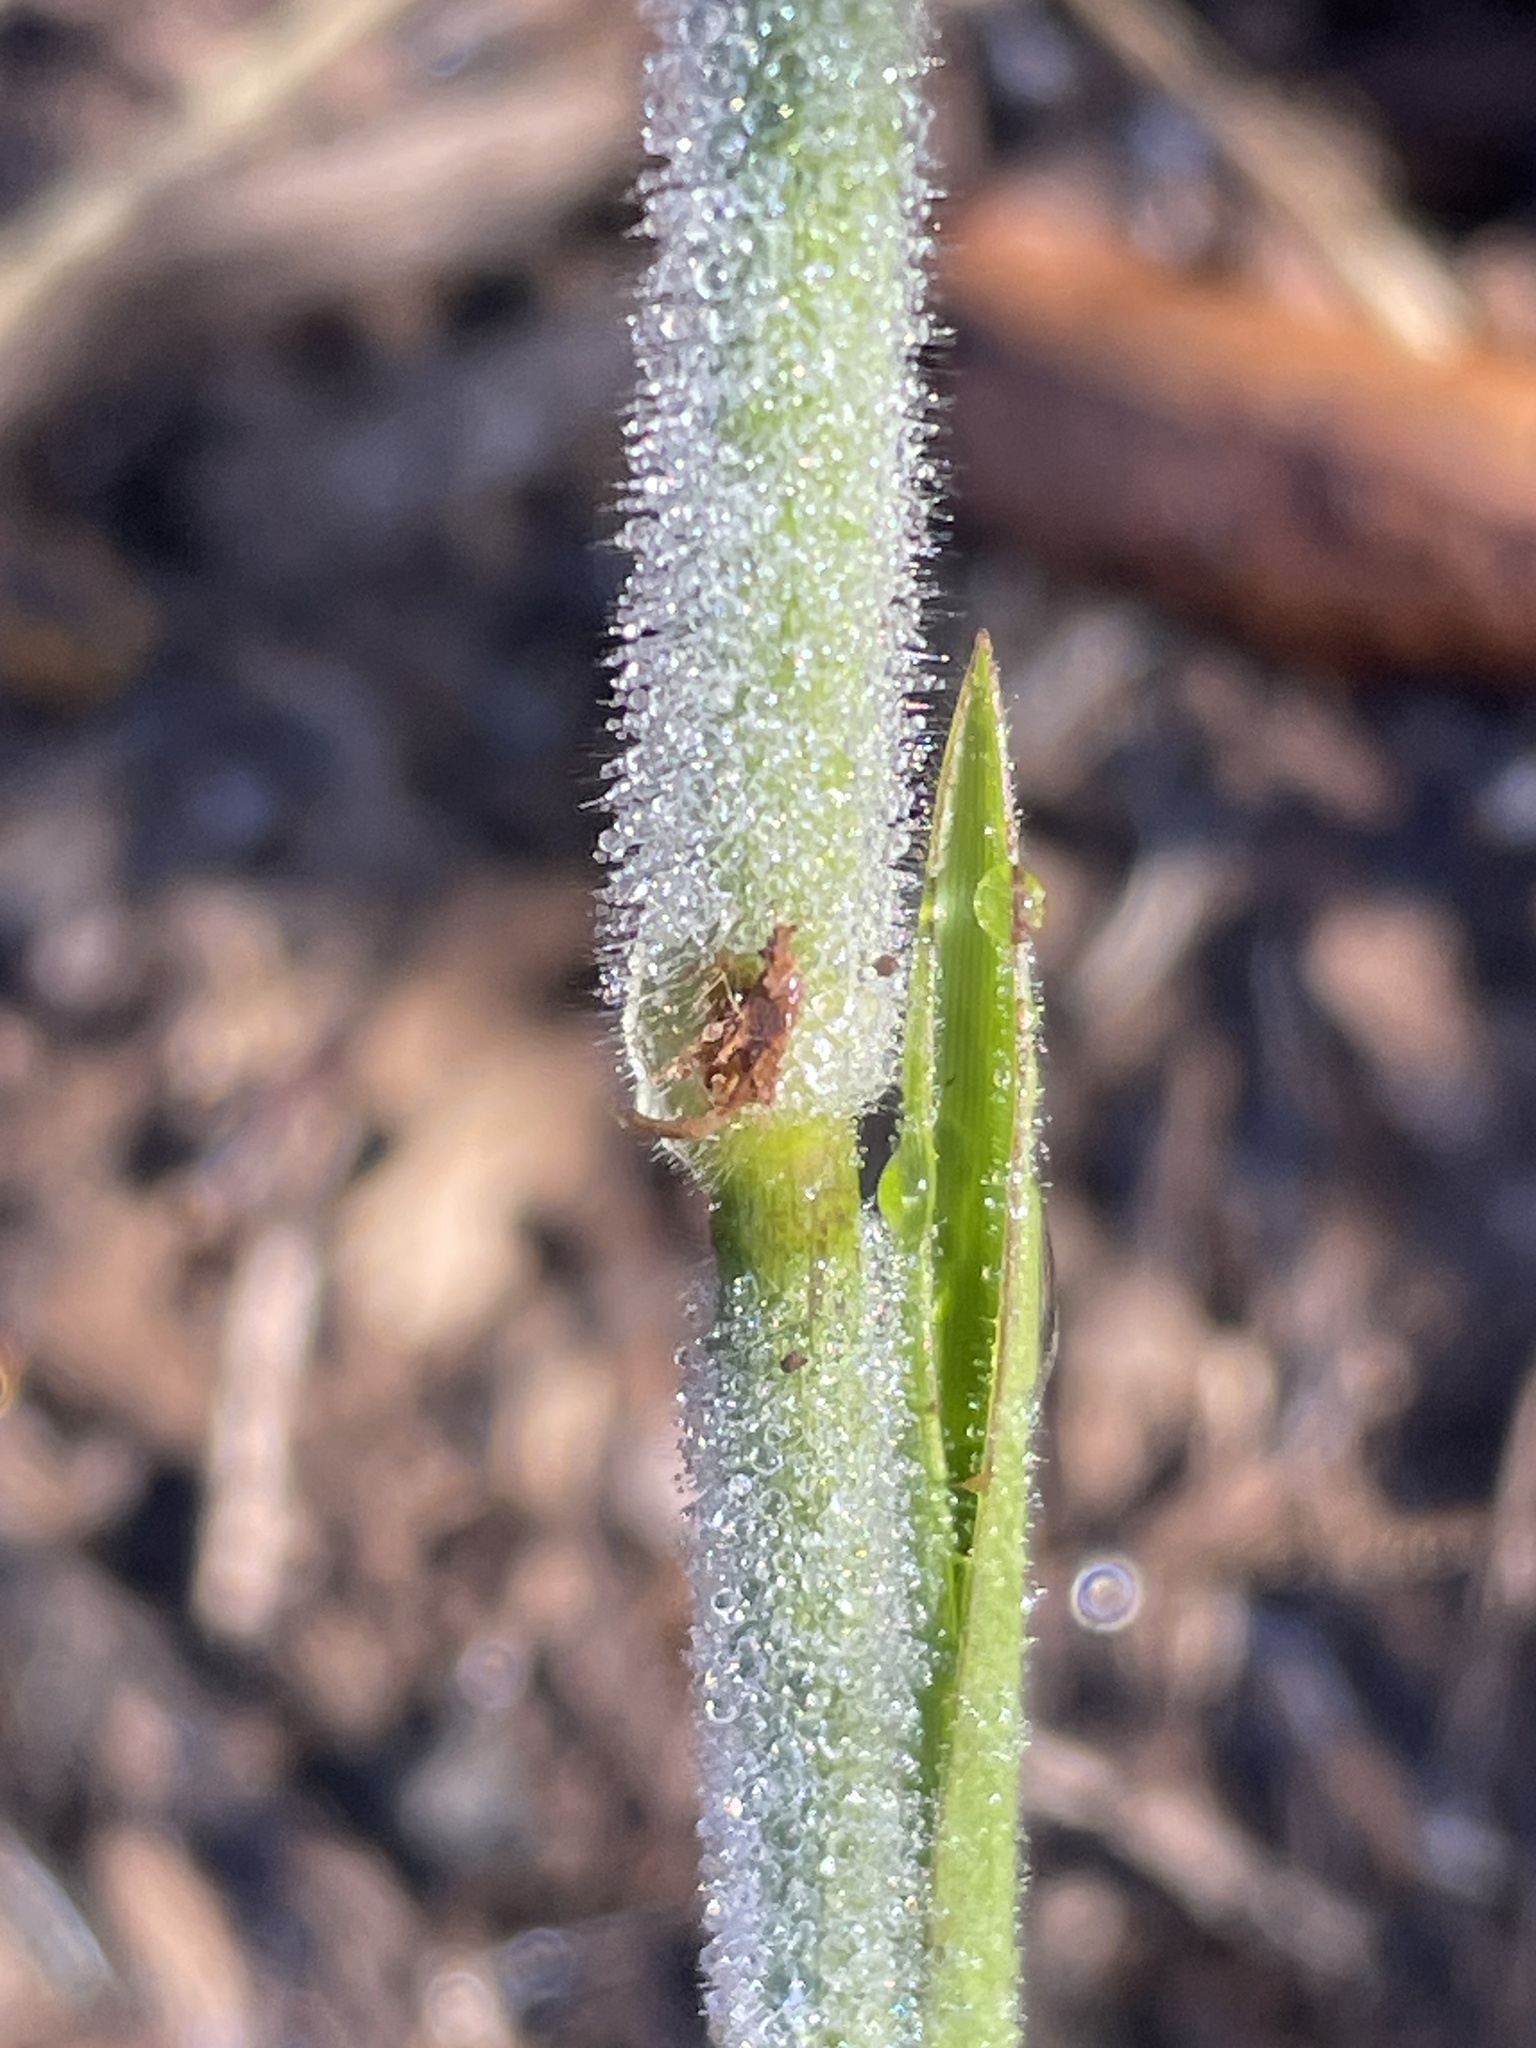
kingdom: Plantae
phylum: Tracheophyta
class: Liliopsida
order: Poales
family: Poaceae
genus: Dichanthelium
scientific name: Dichanthelium scoparium
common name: Velvety panic grass
